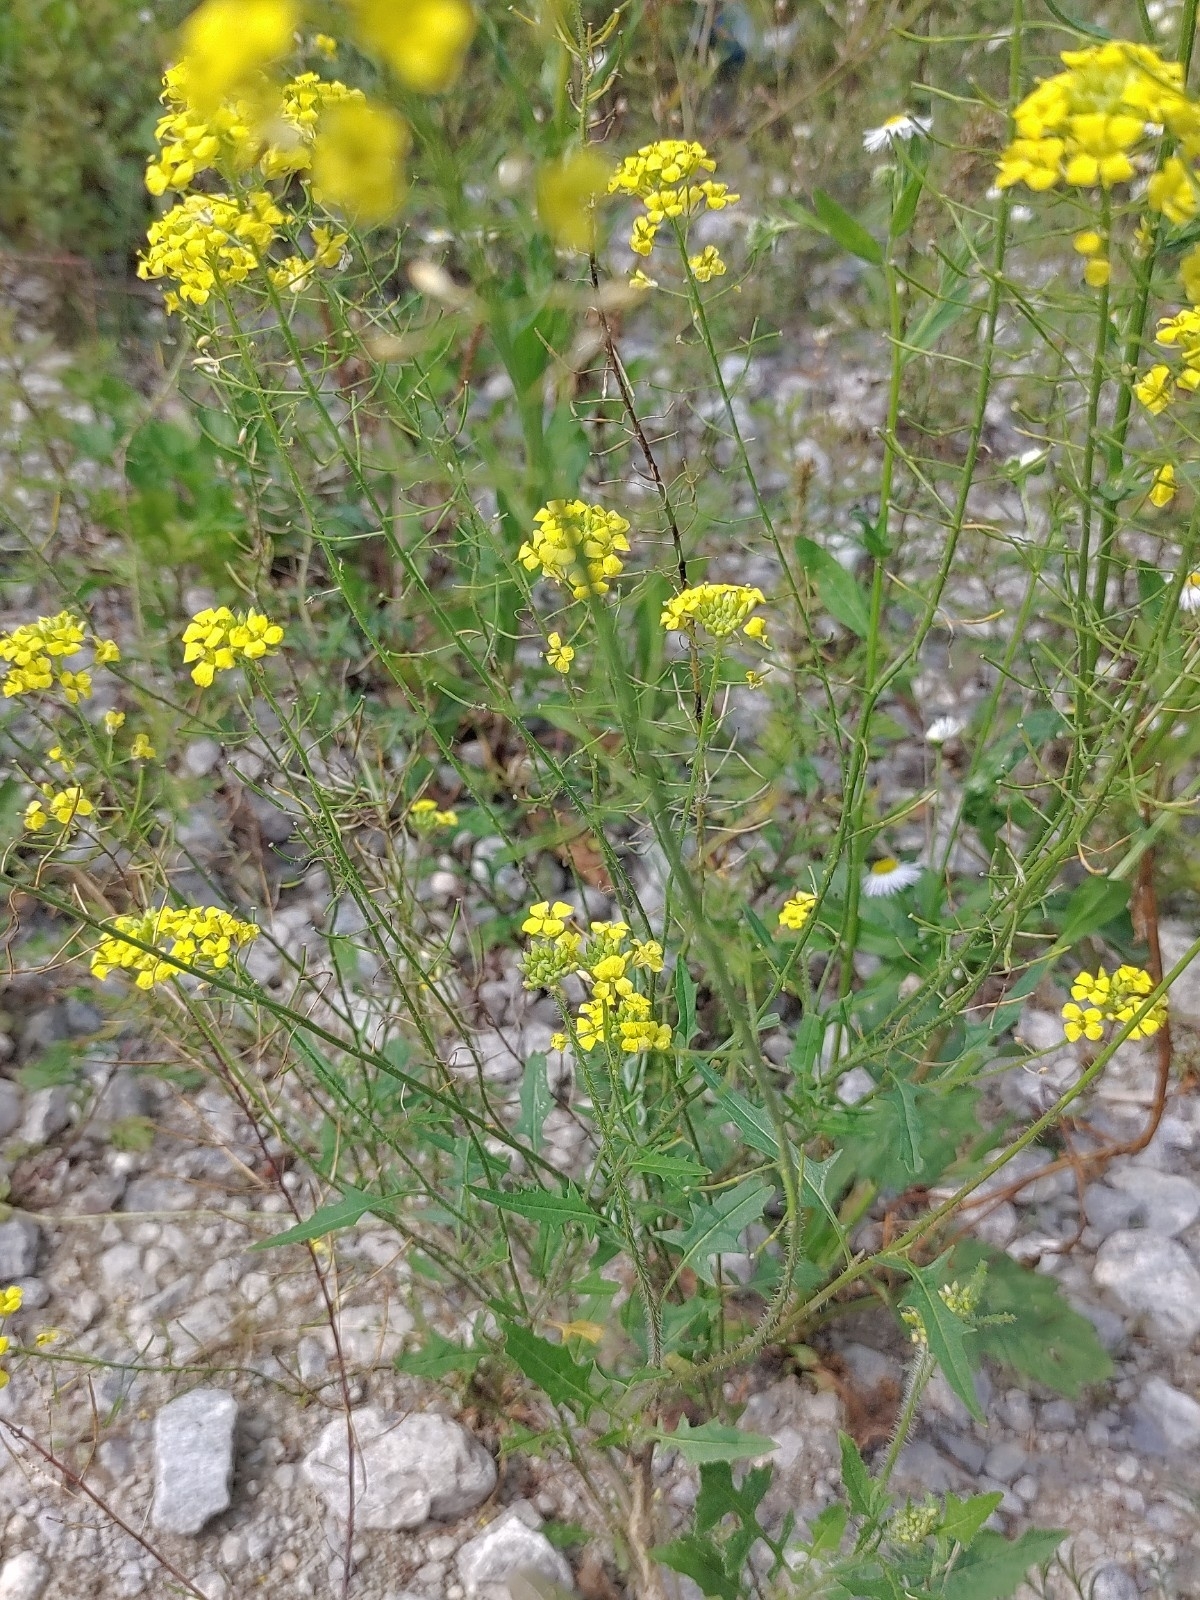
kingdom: Plantae
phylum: Tracheophyta
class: Magnoliopsida
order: Brassicales
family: Brassicaceae
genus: Sisymbrium
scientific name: Sisymbrium loeselii
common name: False london-rocket
